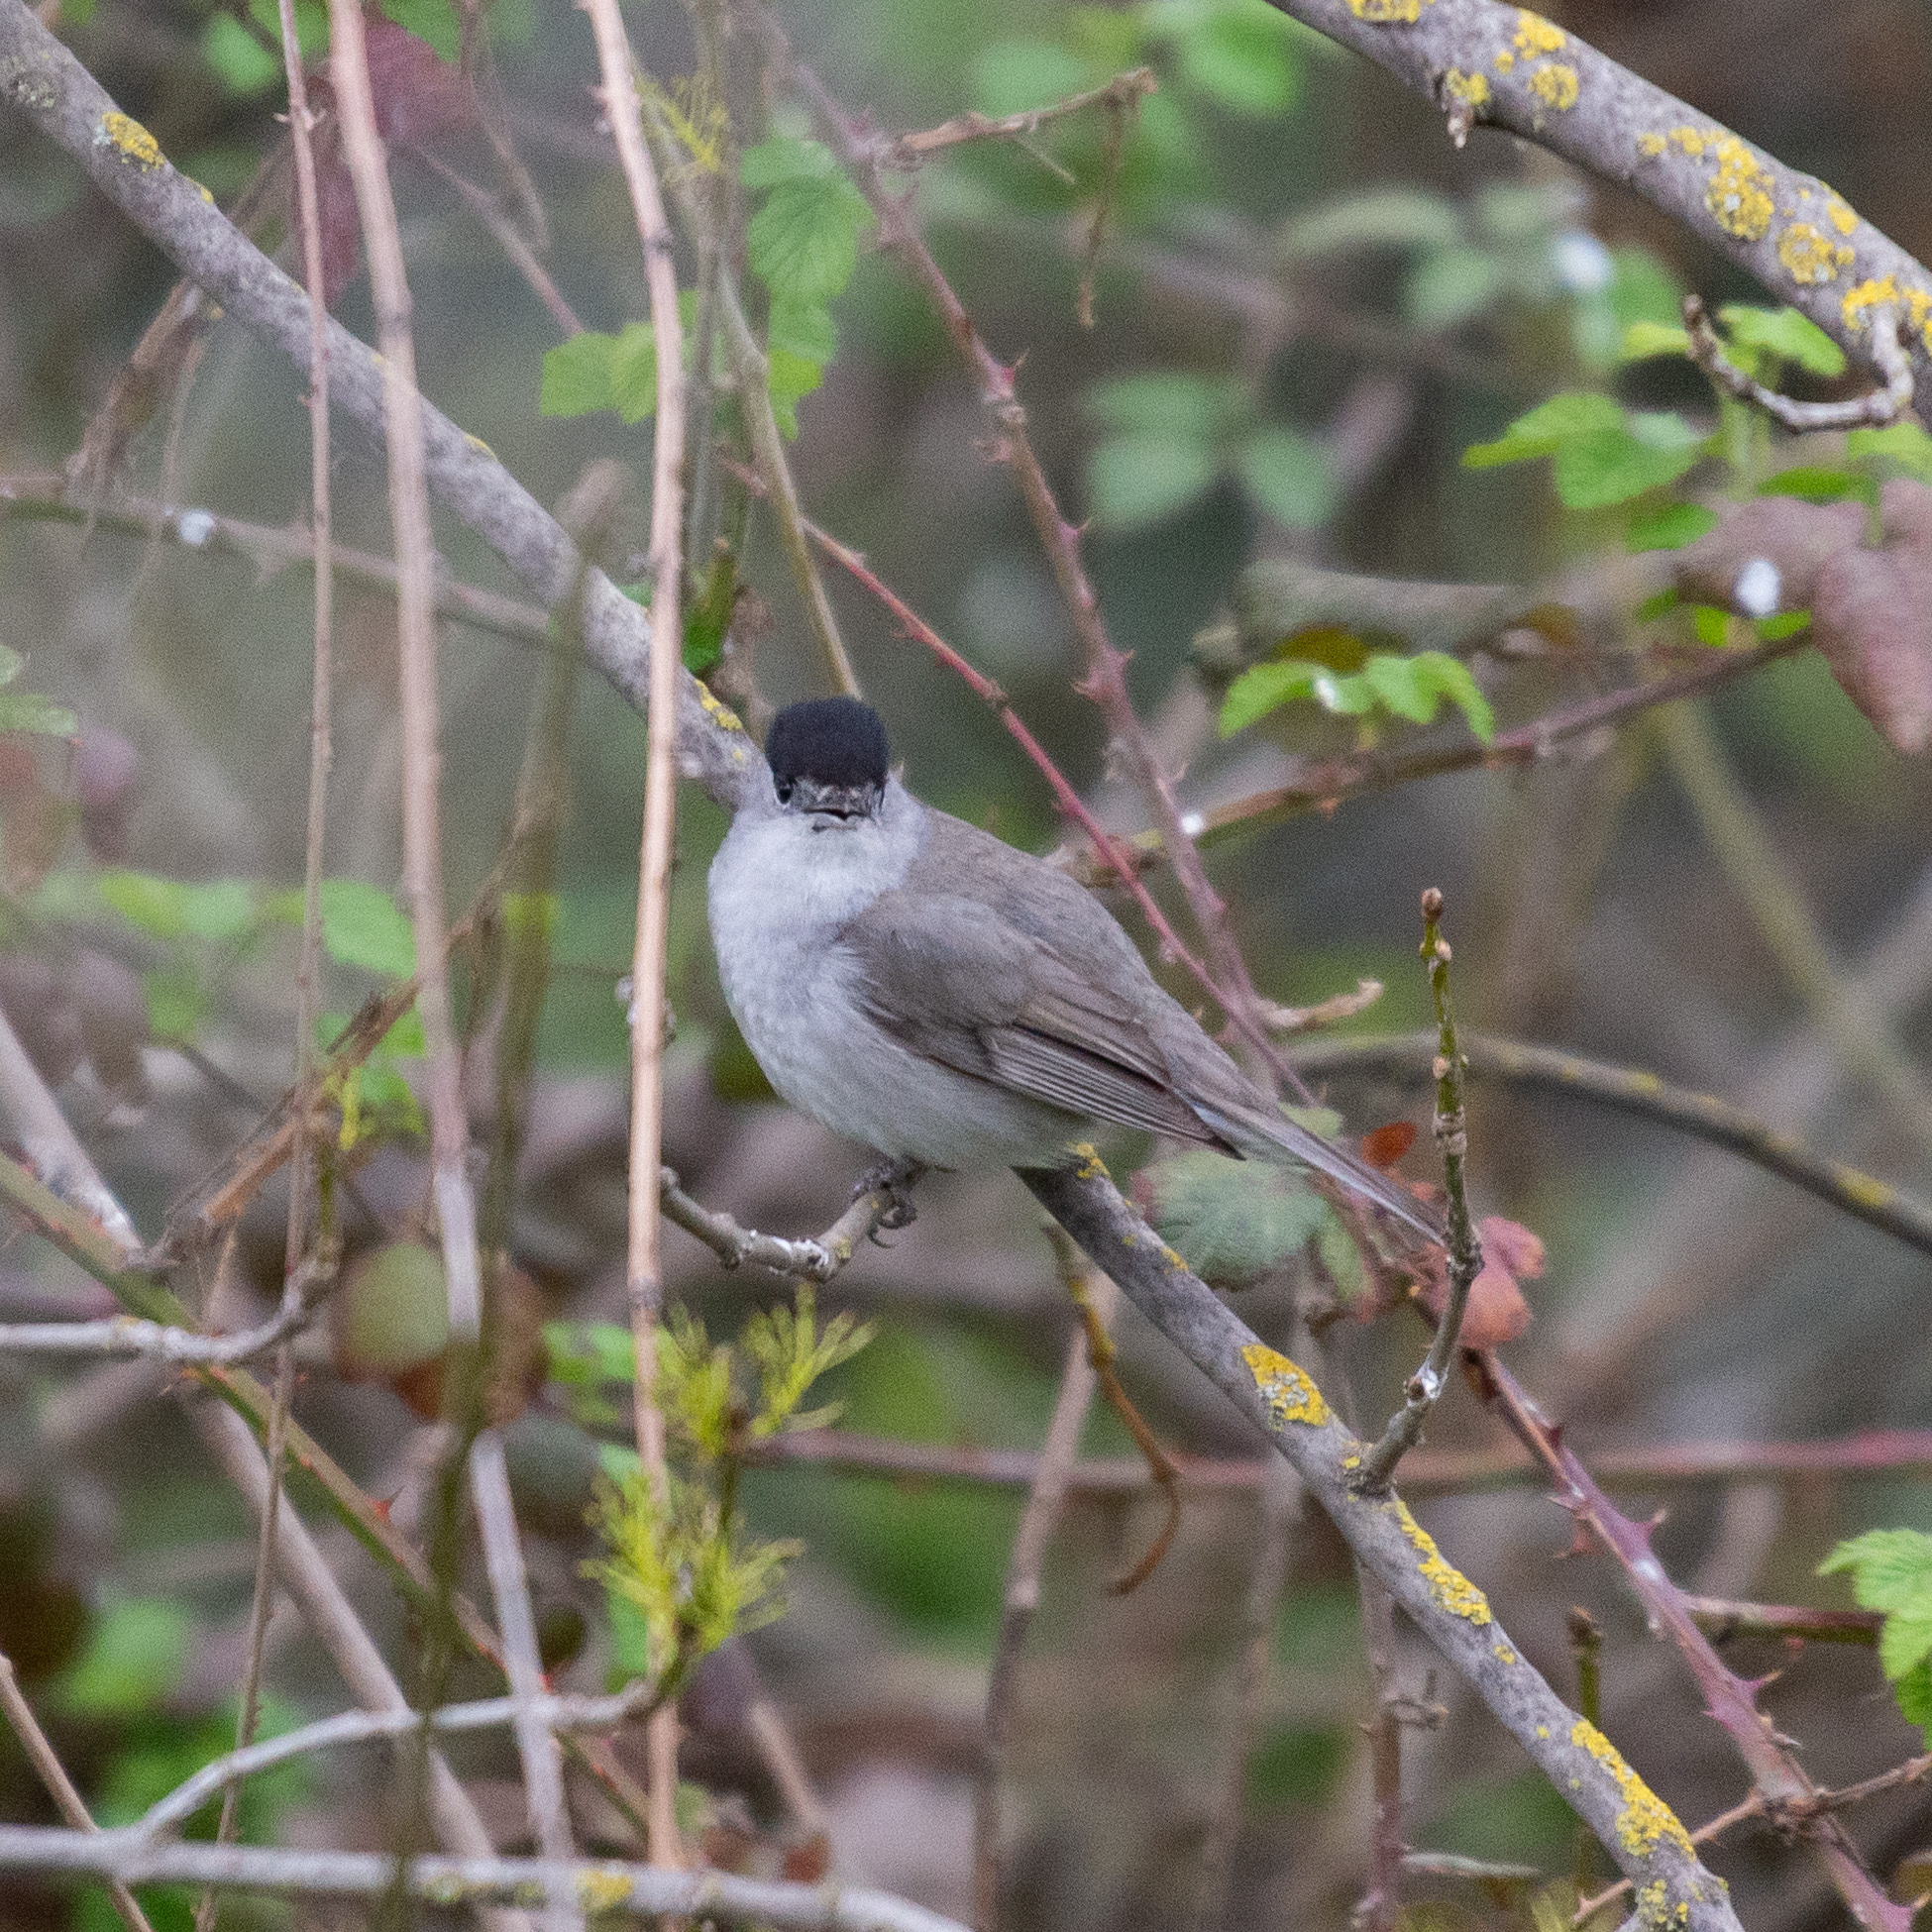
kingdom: Animalia
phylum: Chordata
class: Aves
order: Passeriformes
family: Sylviidae
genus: Sylvia
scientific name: Sylvia atricapilla
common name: Eurasian blackcap
